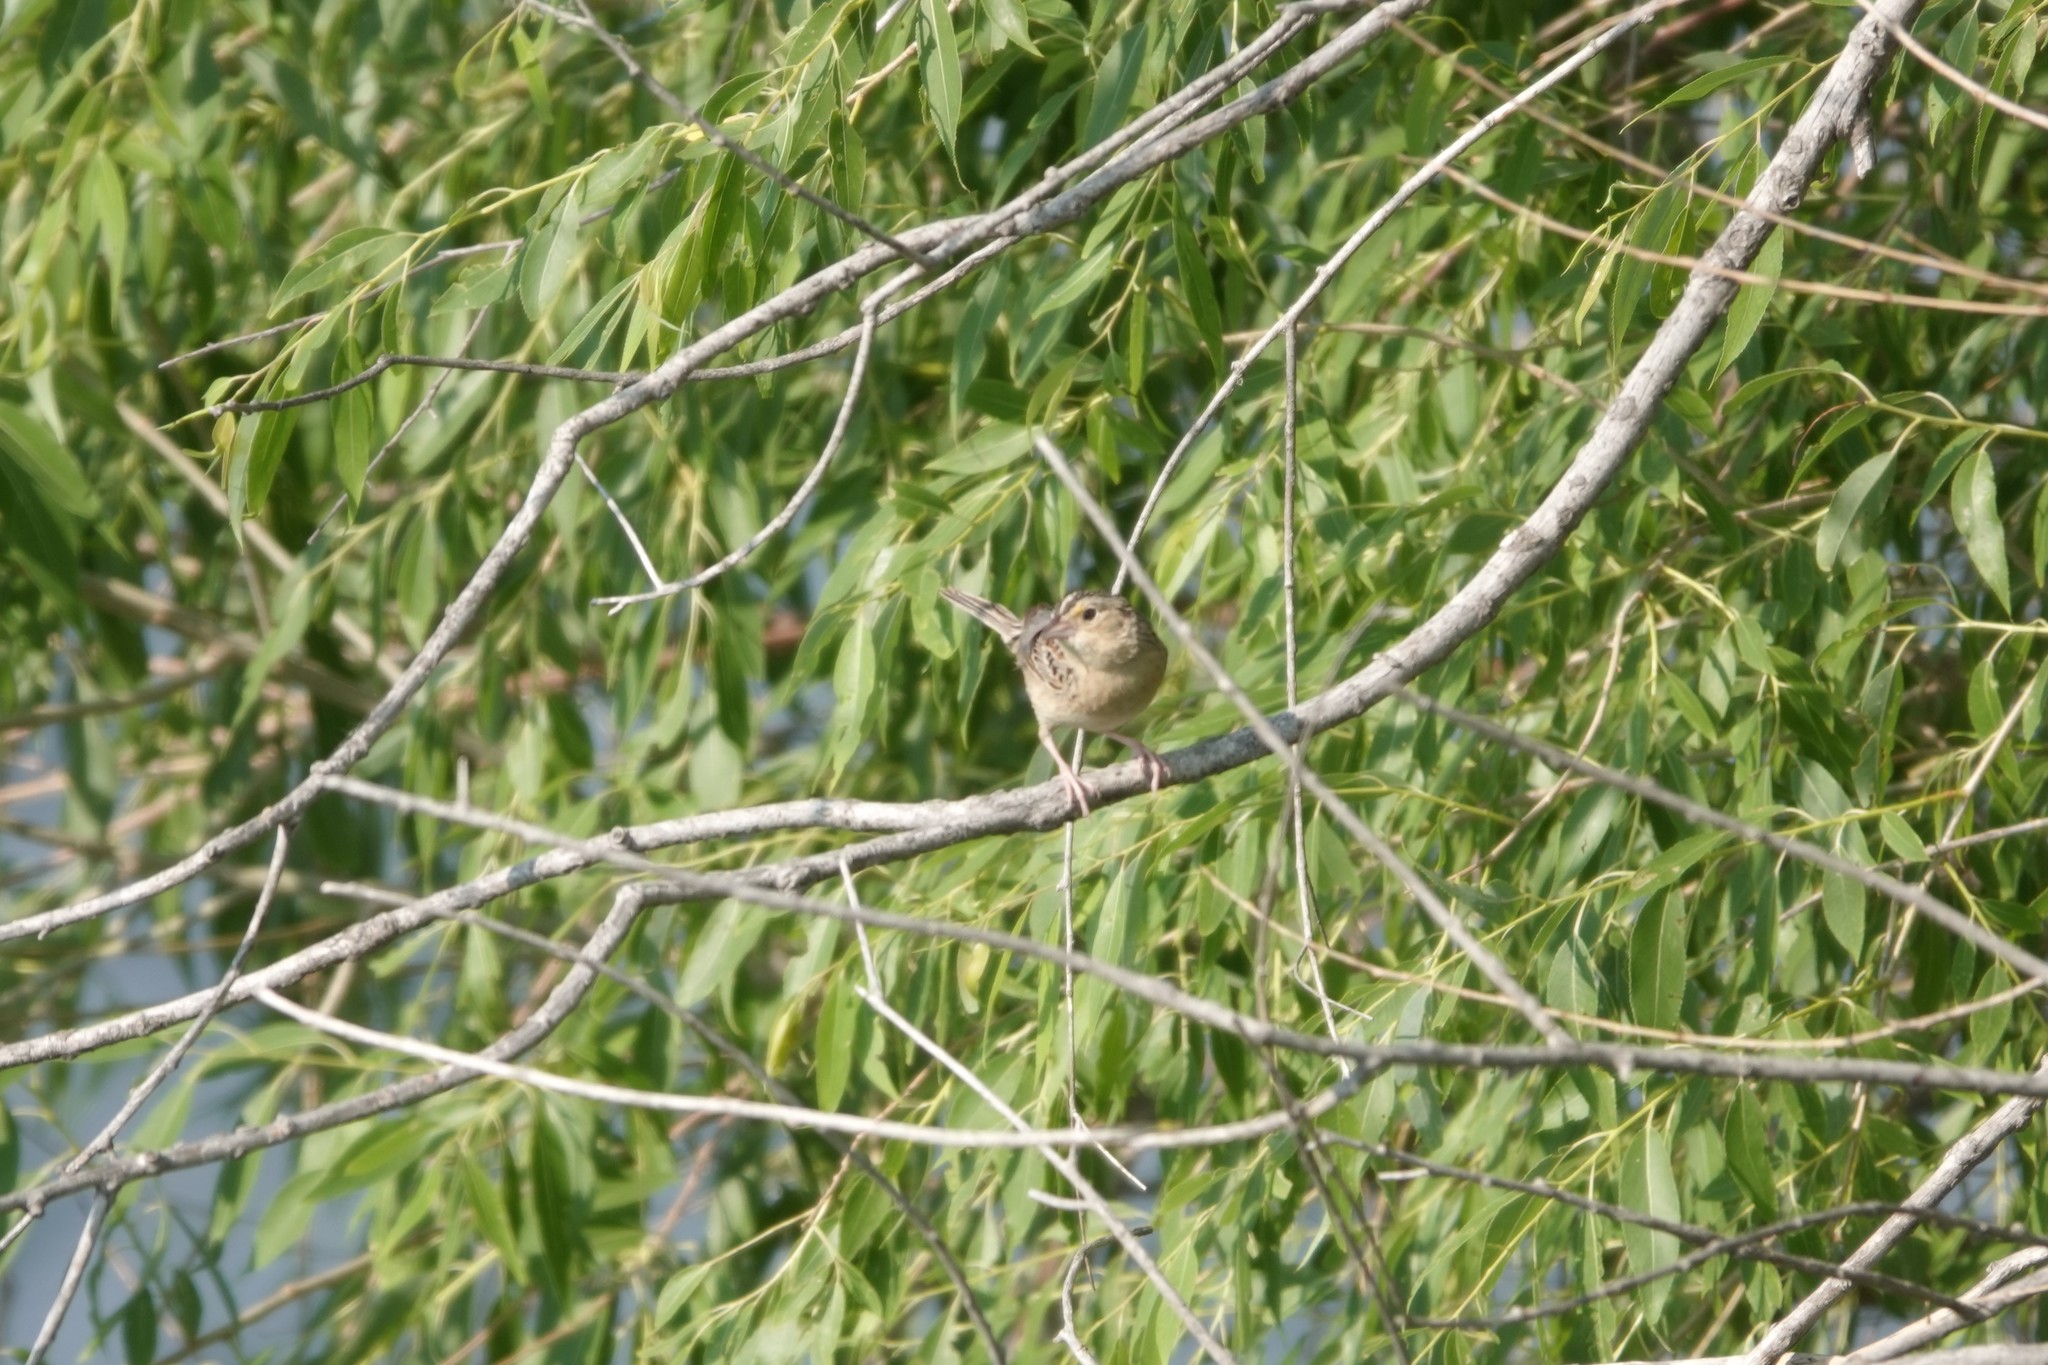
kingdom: Animalia
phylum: Chordata
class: Aves
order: Passeriformes
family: Passerellidae
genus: Ammodramus
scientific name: Ammodramus savannarum
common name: Grasshopper sparrow
